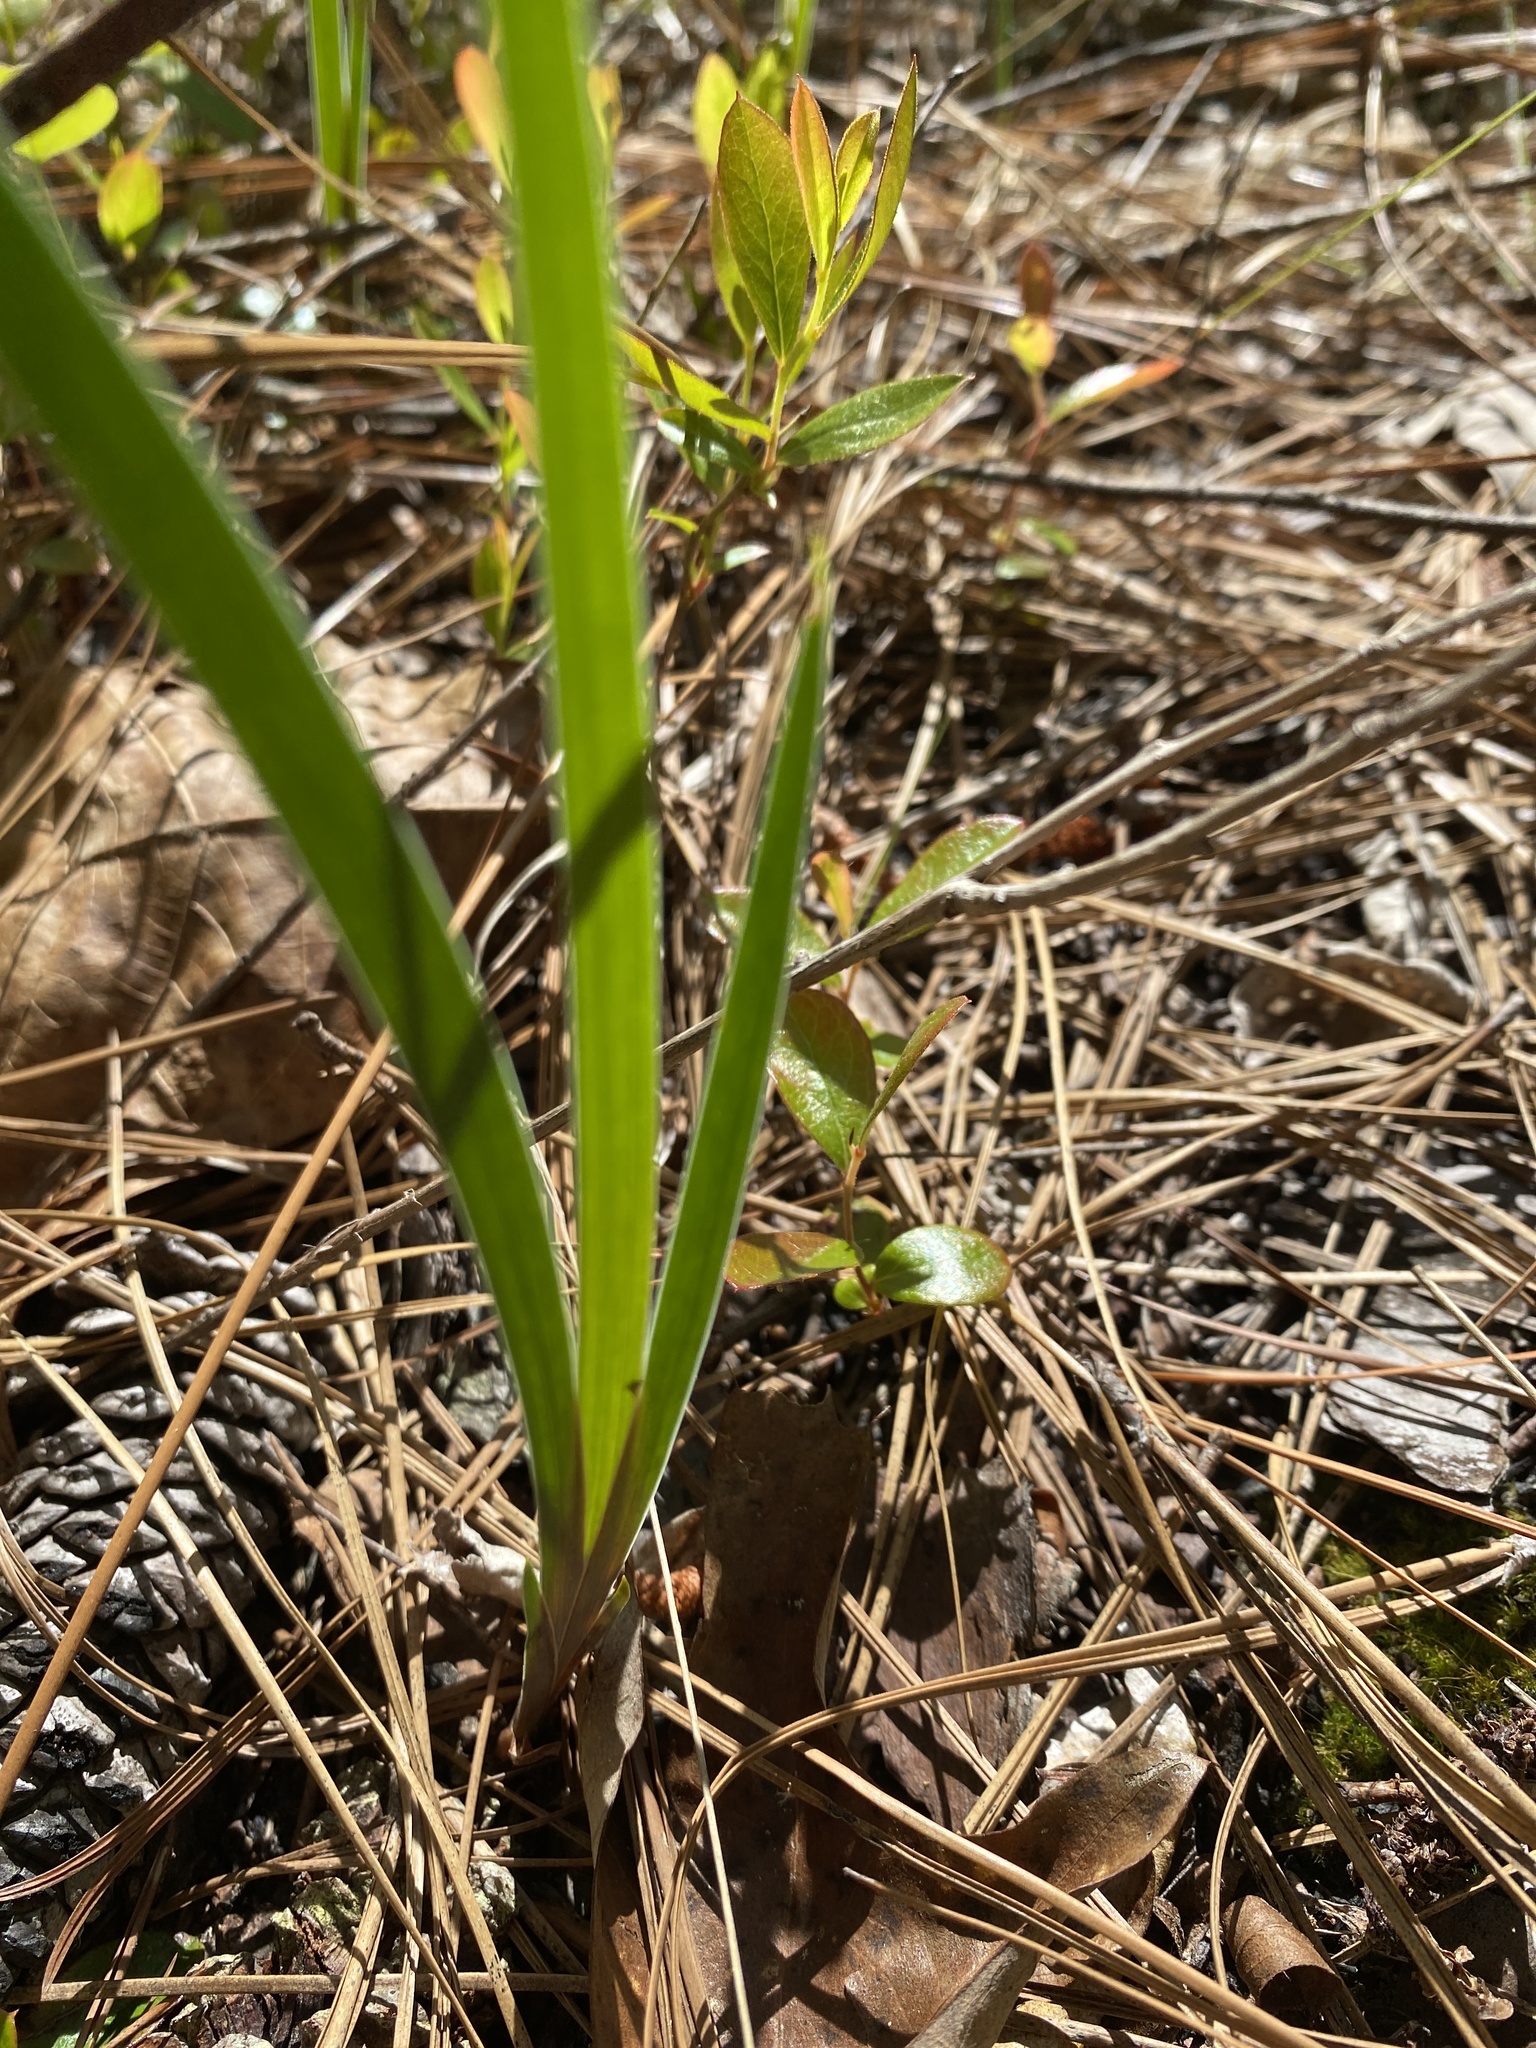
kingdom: Plantae
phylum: Tracheophyta
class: Liliopsida
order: Asparagales
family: Iridaceae
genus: Iris
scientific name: Iris verna
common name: Dwarf iris
